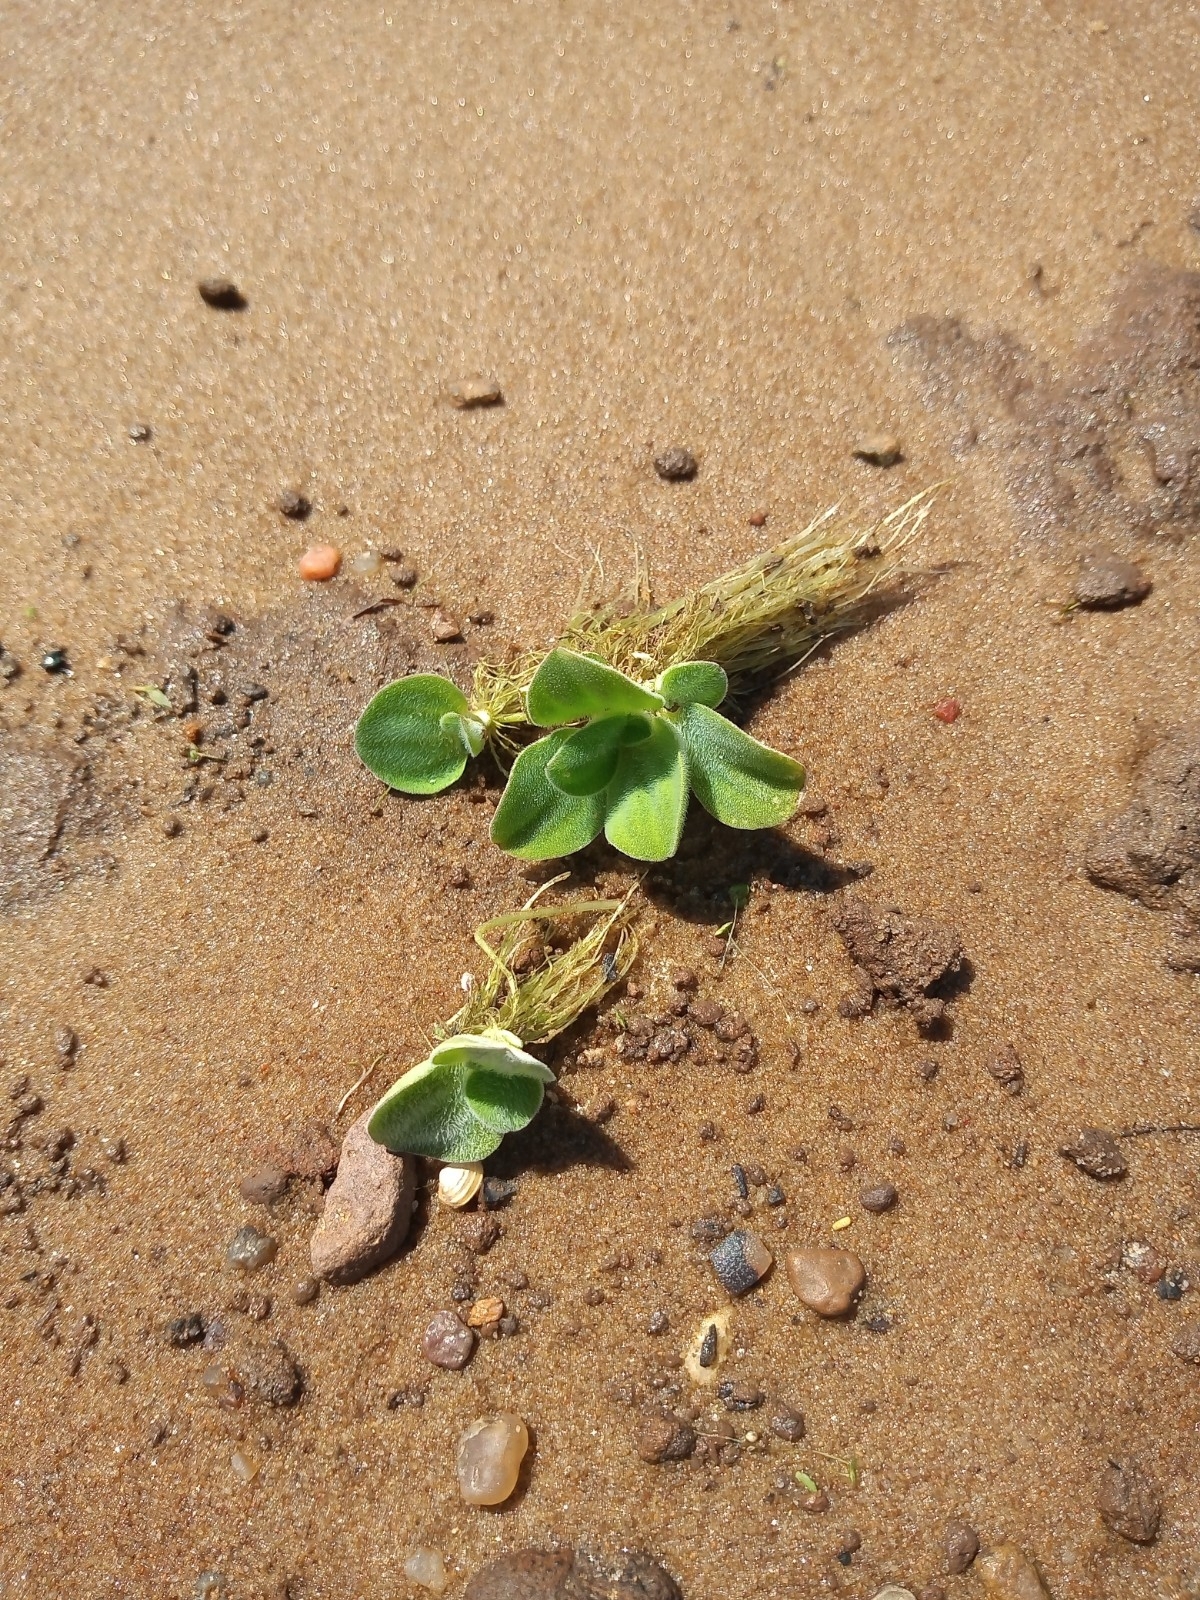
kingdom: Plantae
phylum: Tracheophyta
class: Liliopsida
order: Alismatales
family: Araceae
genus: Pistia
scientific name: Pistia stratiotes
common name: Water lettuce
